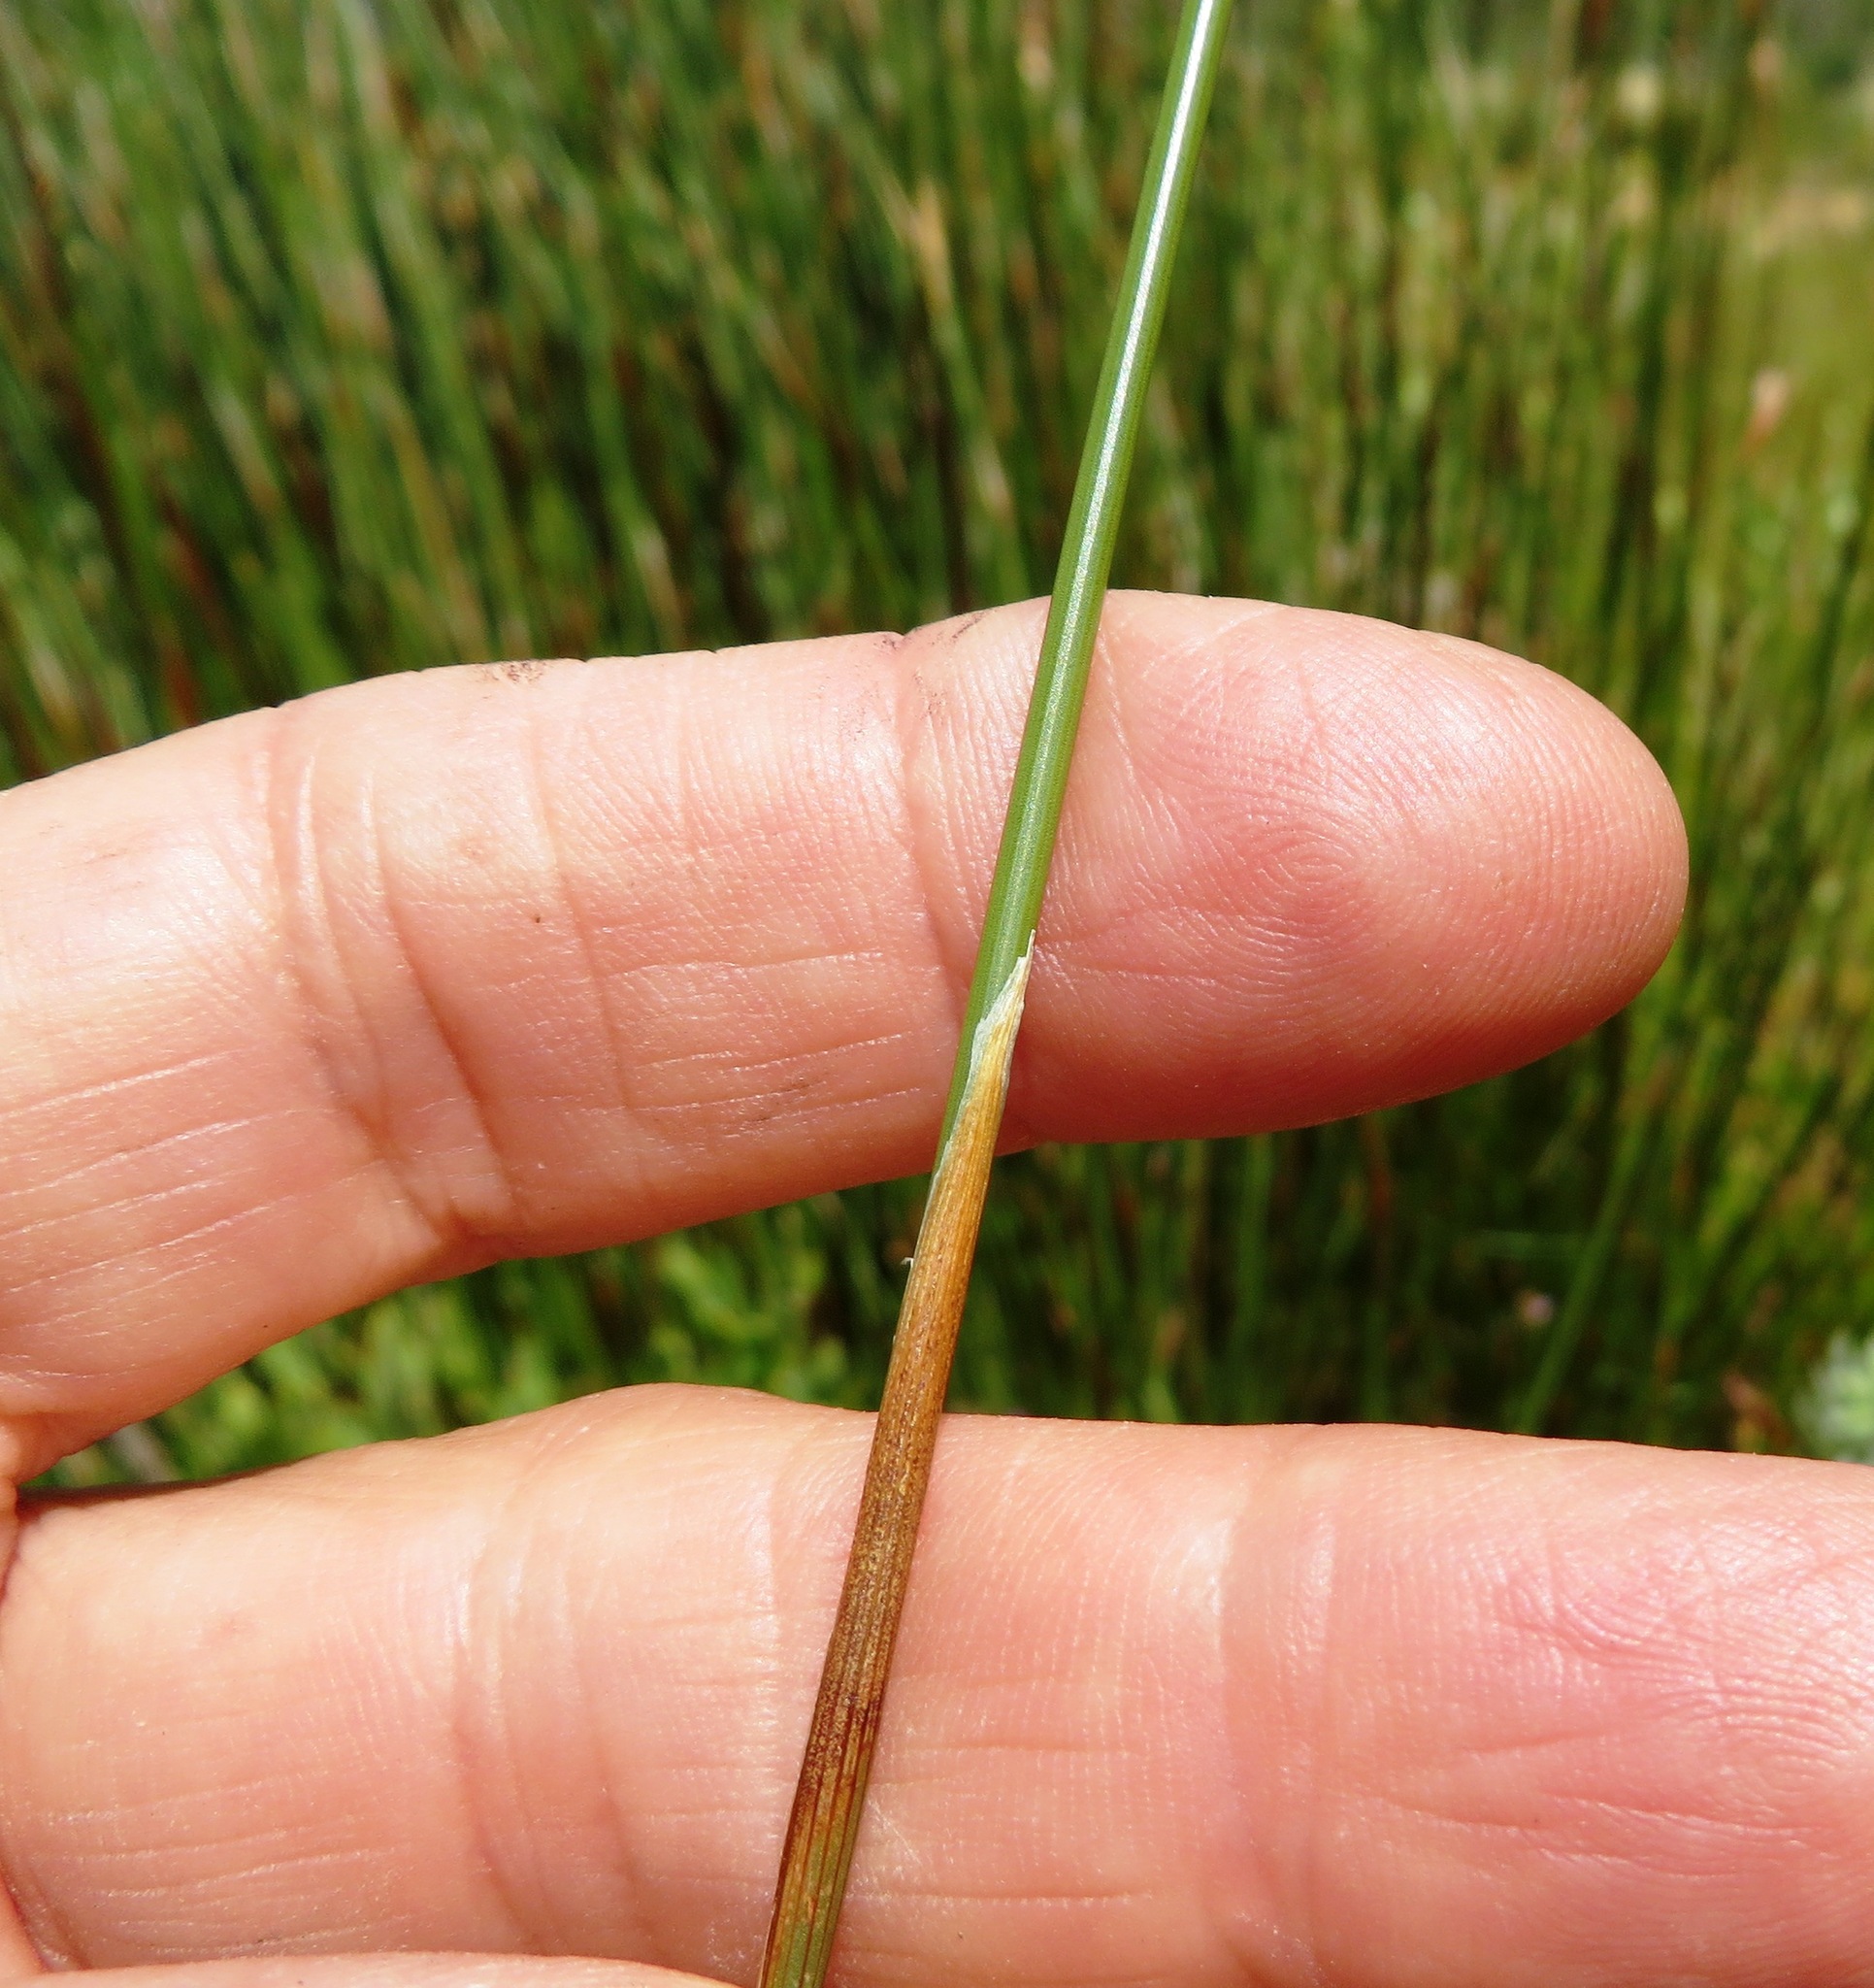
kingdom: Plantae
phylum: Tracheophyta
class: Liliopsida
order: Poales
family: Restionaceae
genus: Hypodiscus
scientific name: Hypodiscus argenteus
